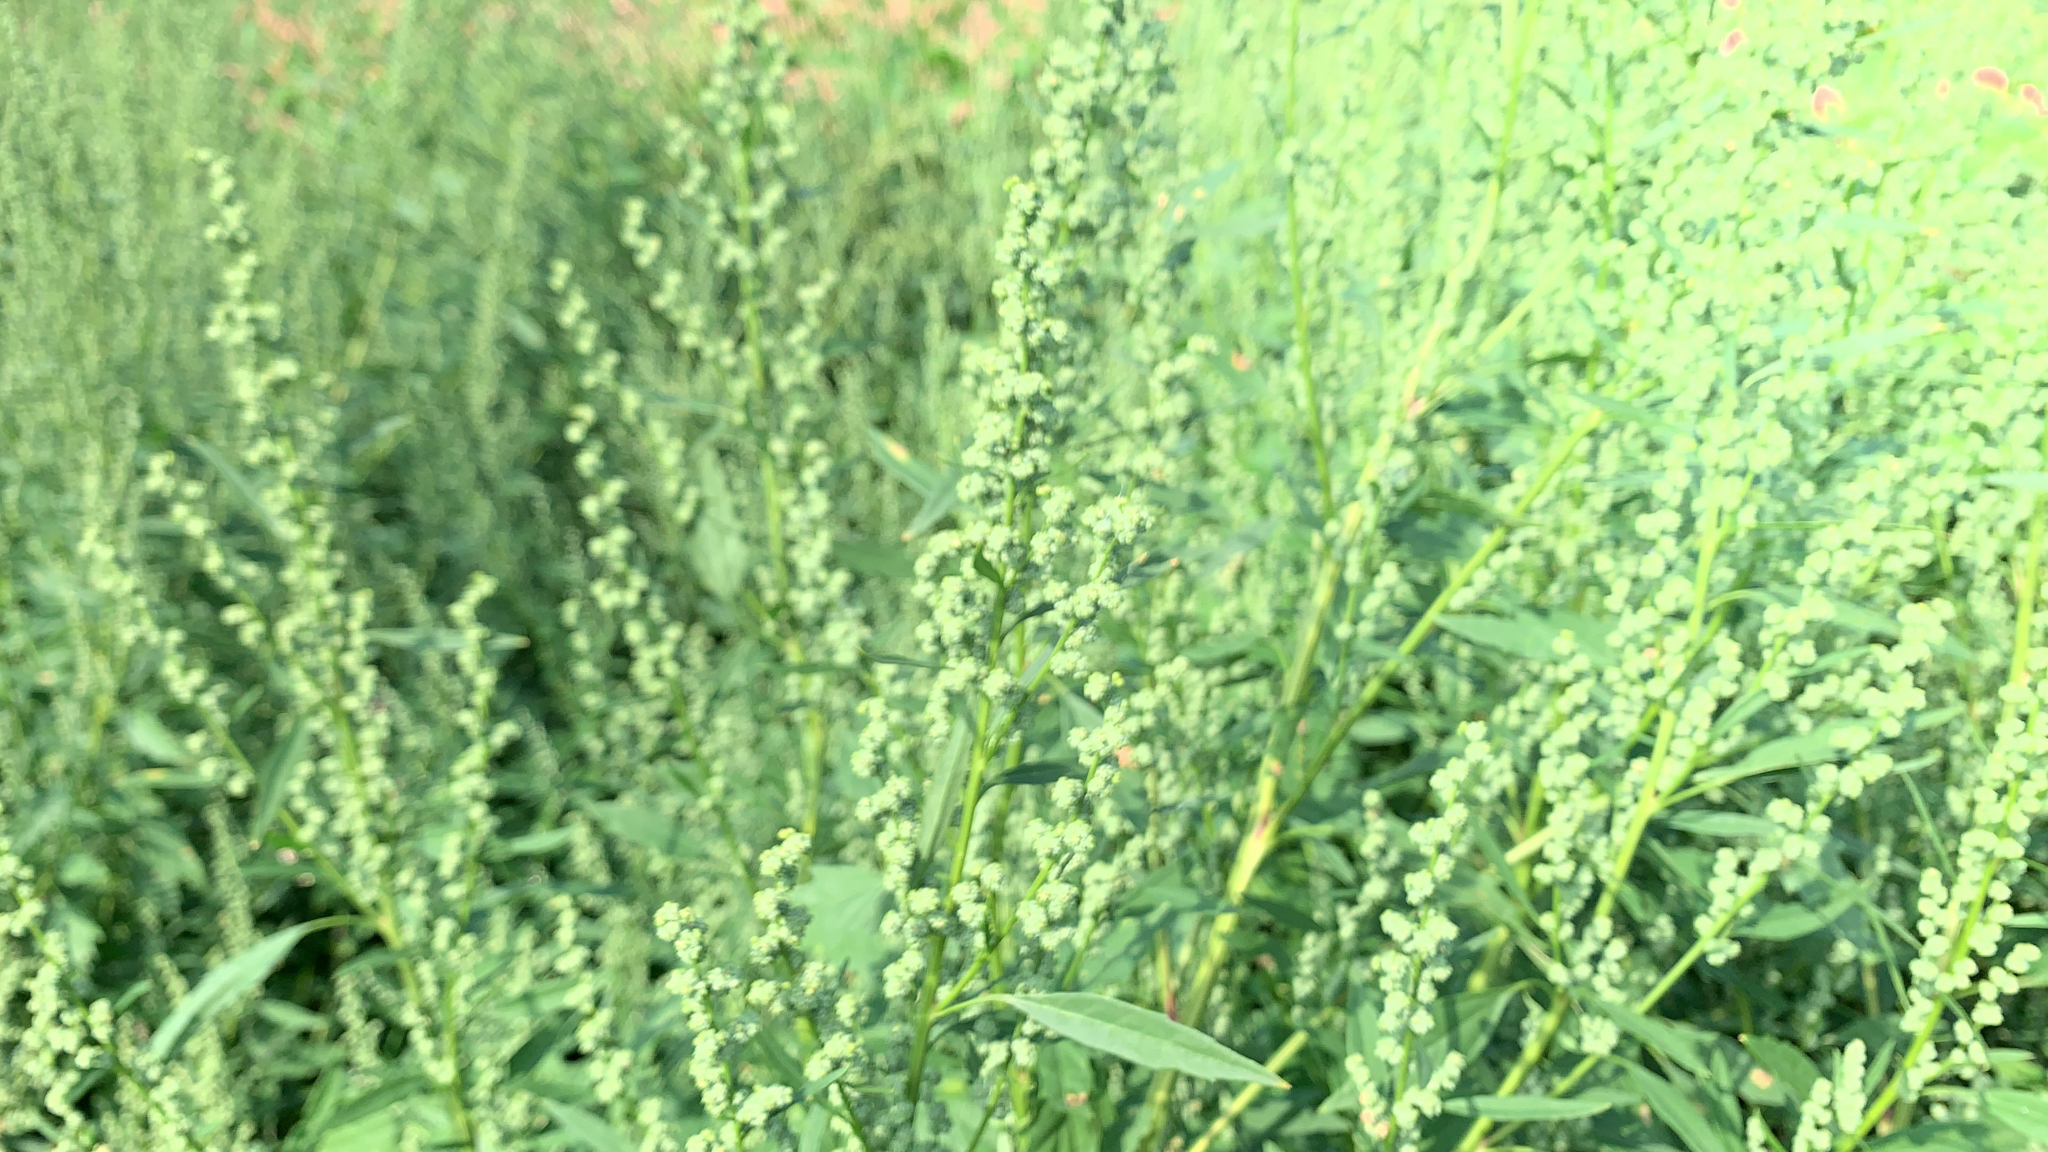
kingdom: Plantae
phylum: Tracheophyta
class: Magnoliopsida
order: Caryophyllales
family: Amaranthaceae
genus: Chenopodium
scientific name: Chenopodium album
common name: Fat-hen
